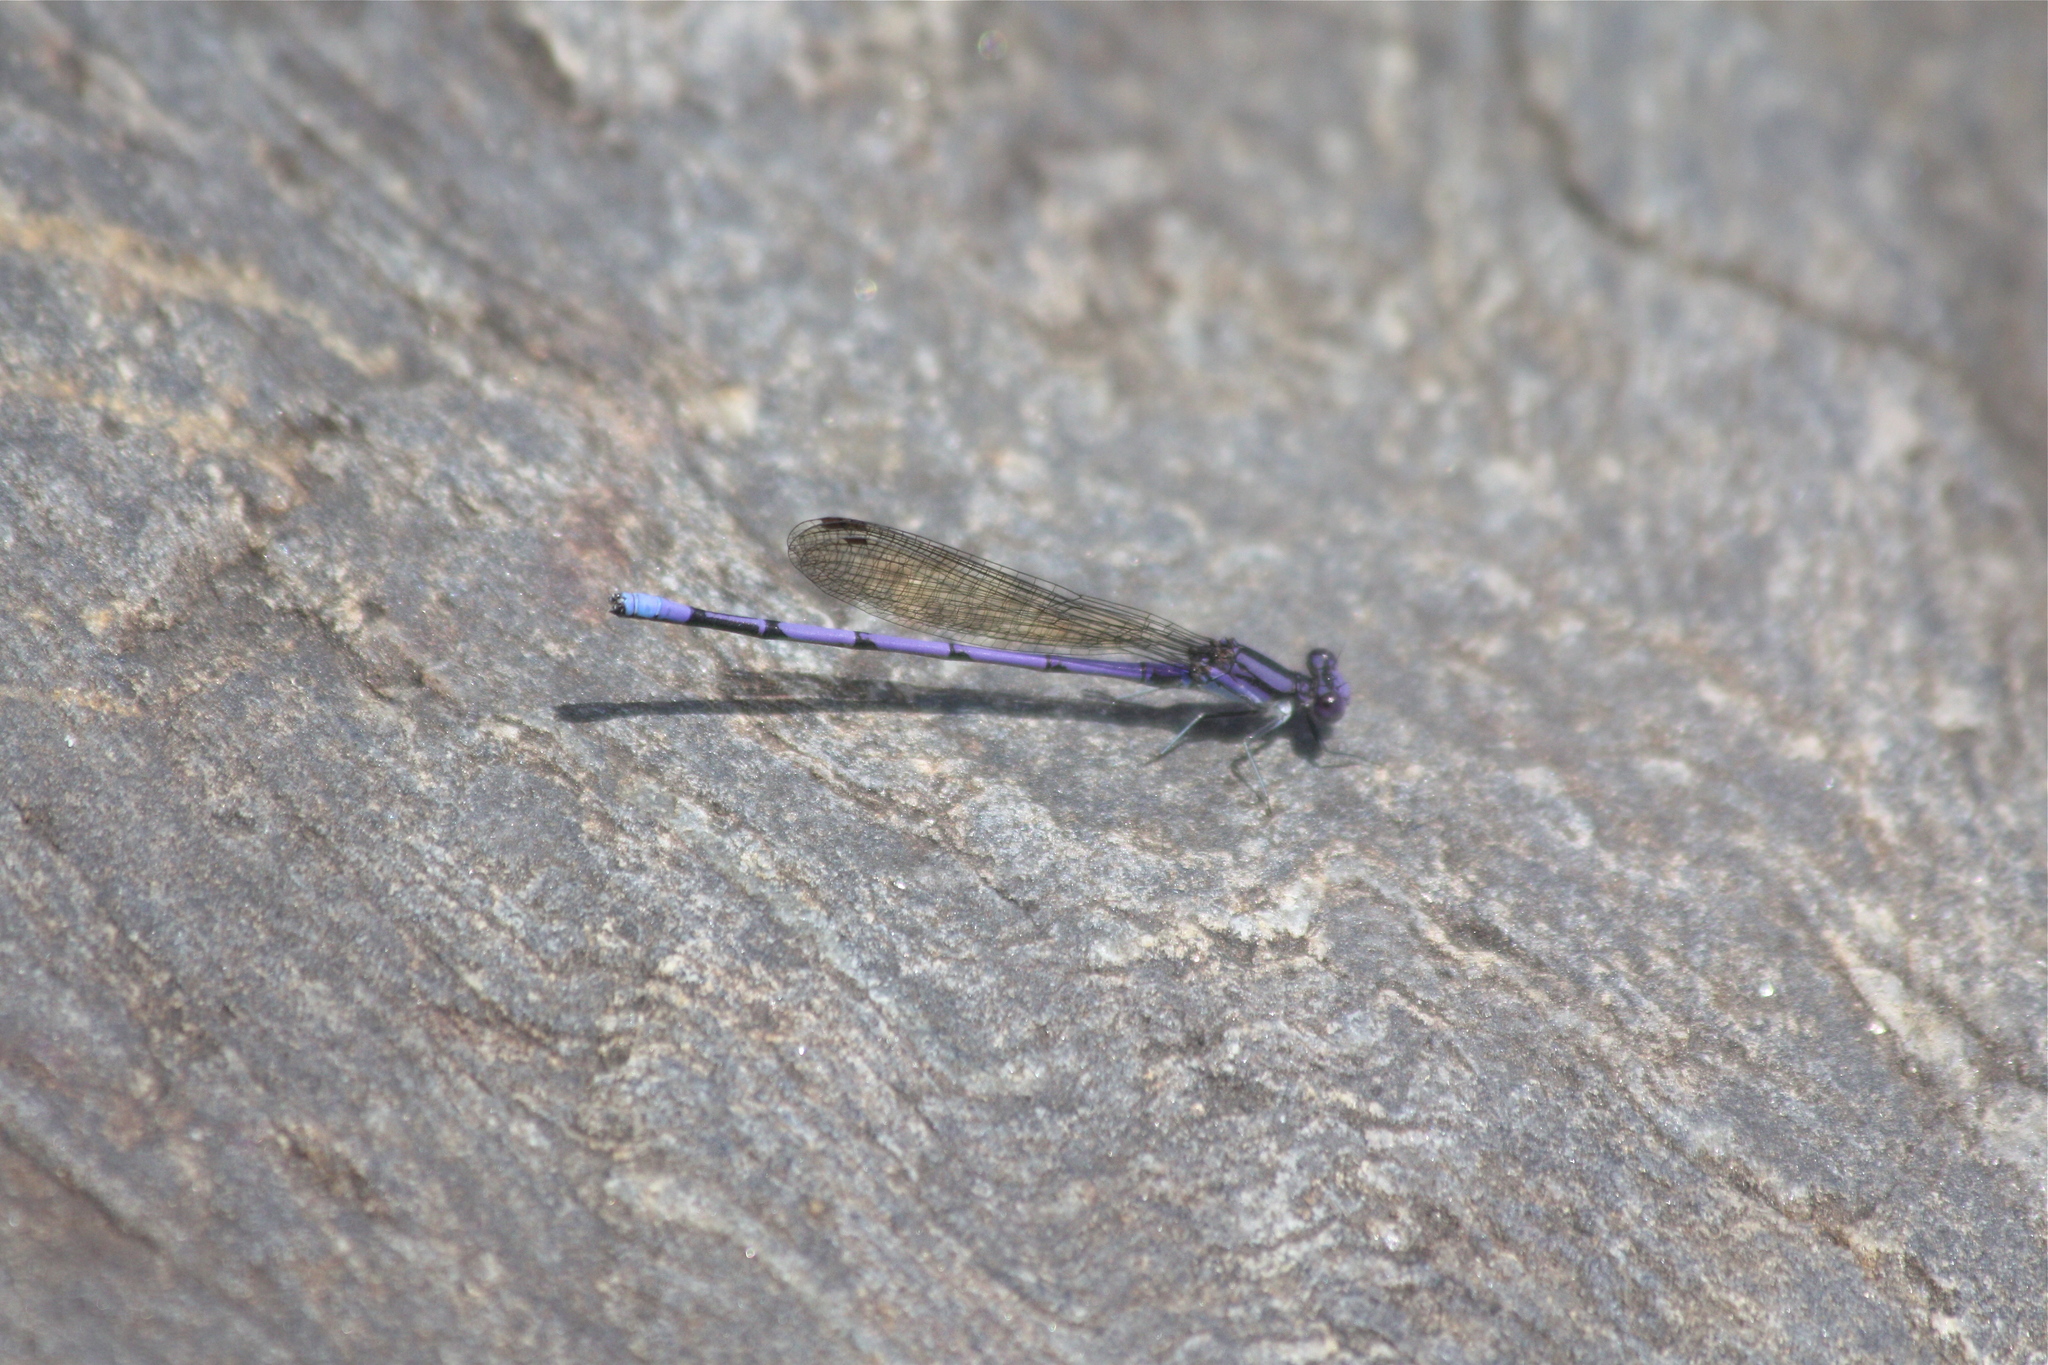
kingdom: Animalia
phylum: Arthropoda
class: Insecta
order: Odonata
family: Coenagrionidae
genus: Argia
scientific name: Argia fumipennis
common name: Variable dancer
